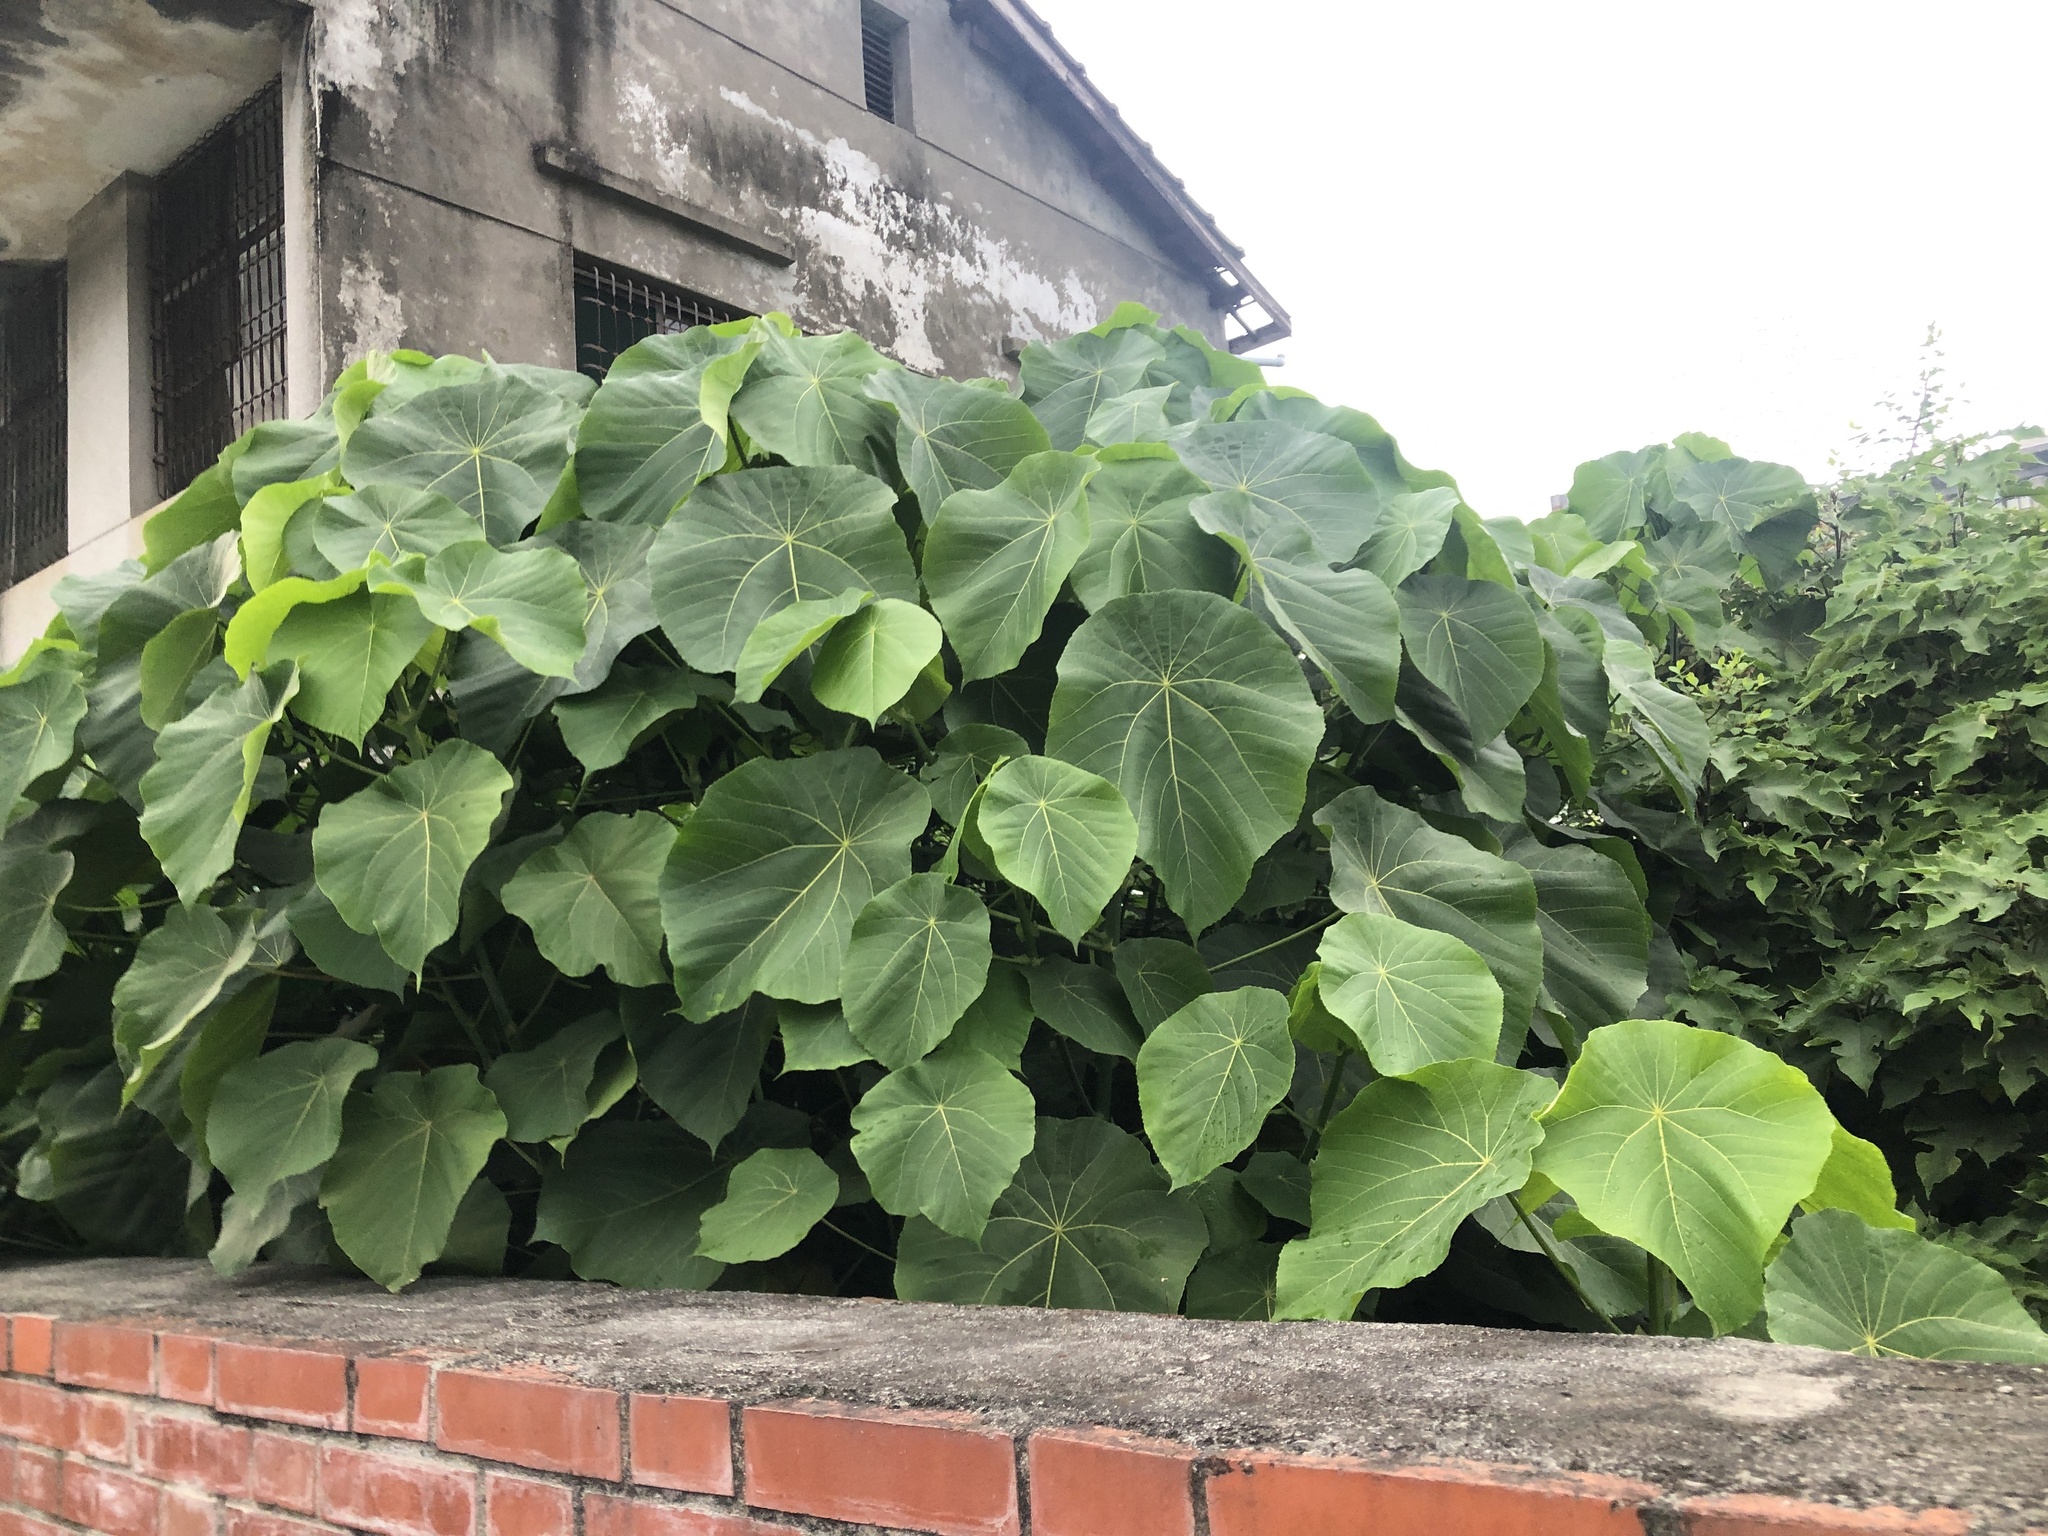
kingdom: Plantae
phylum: Tracheophyta
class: Magnoliopsida
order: Malpighiales
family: Euphorbiaceae
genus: Macaranga
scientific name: Macaranga tanarius
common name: Parasol leaf tree
